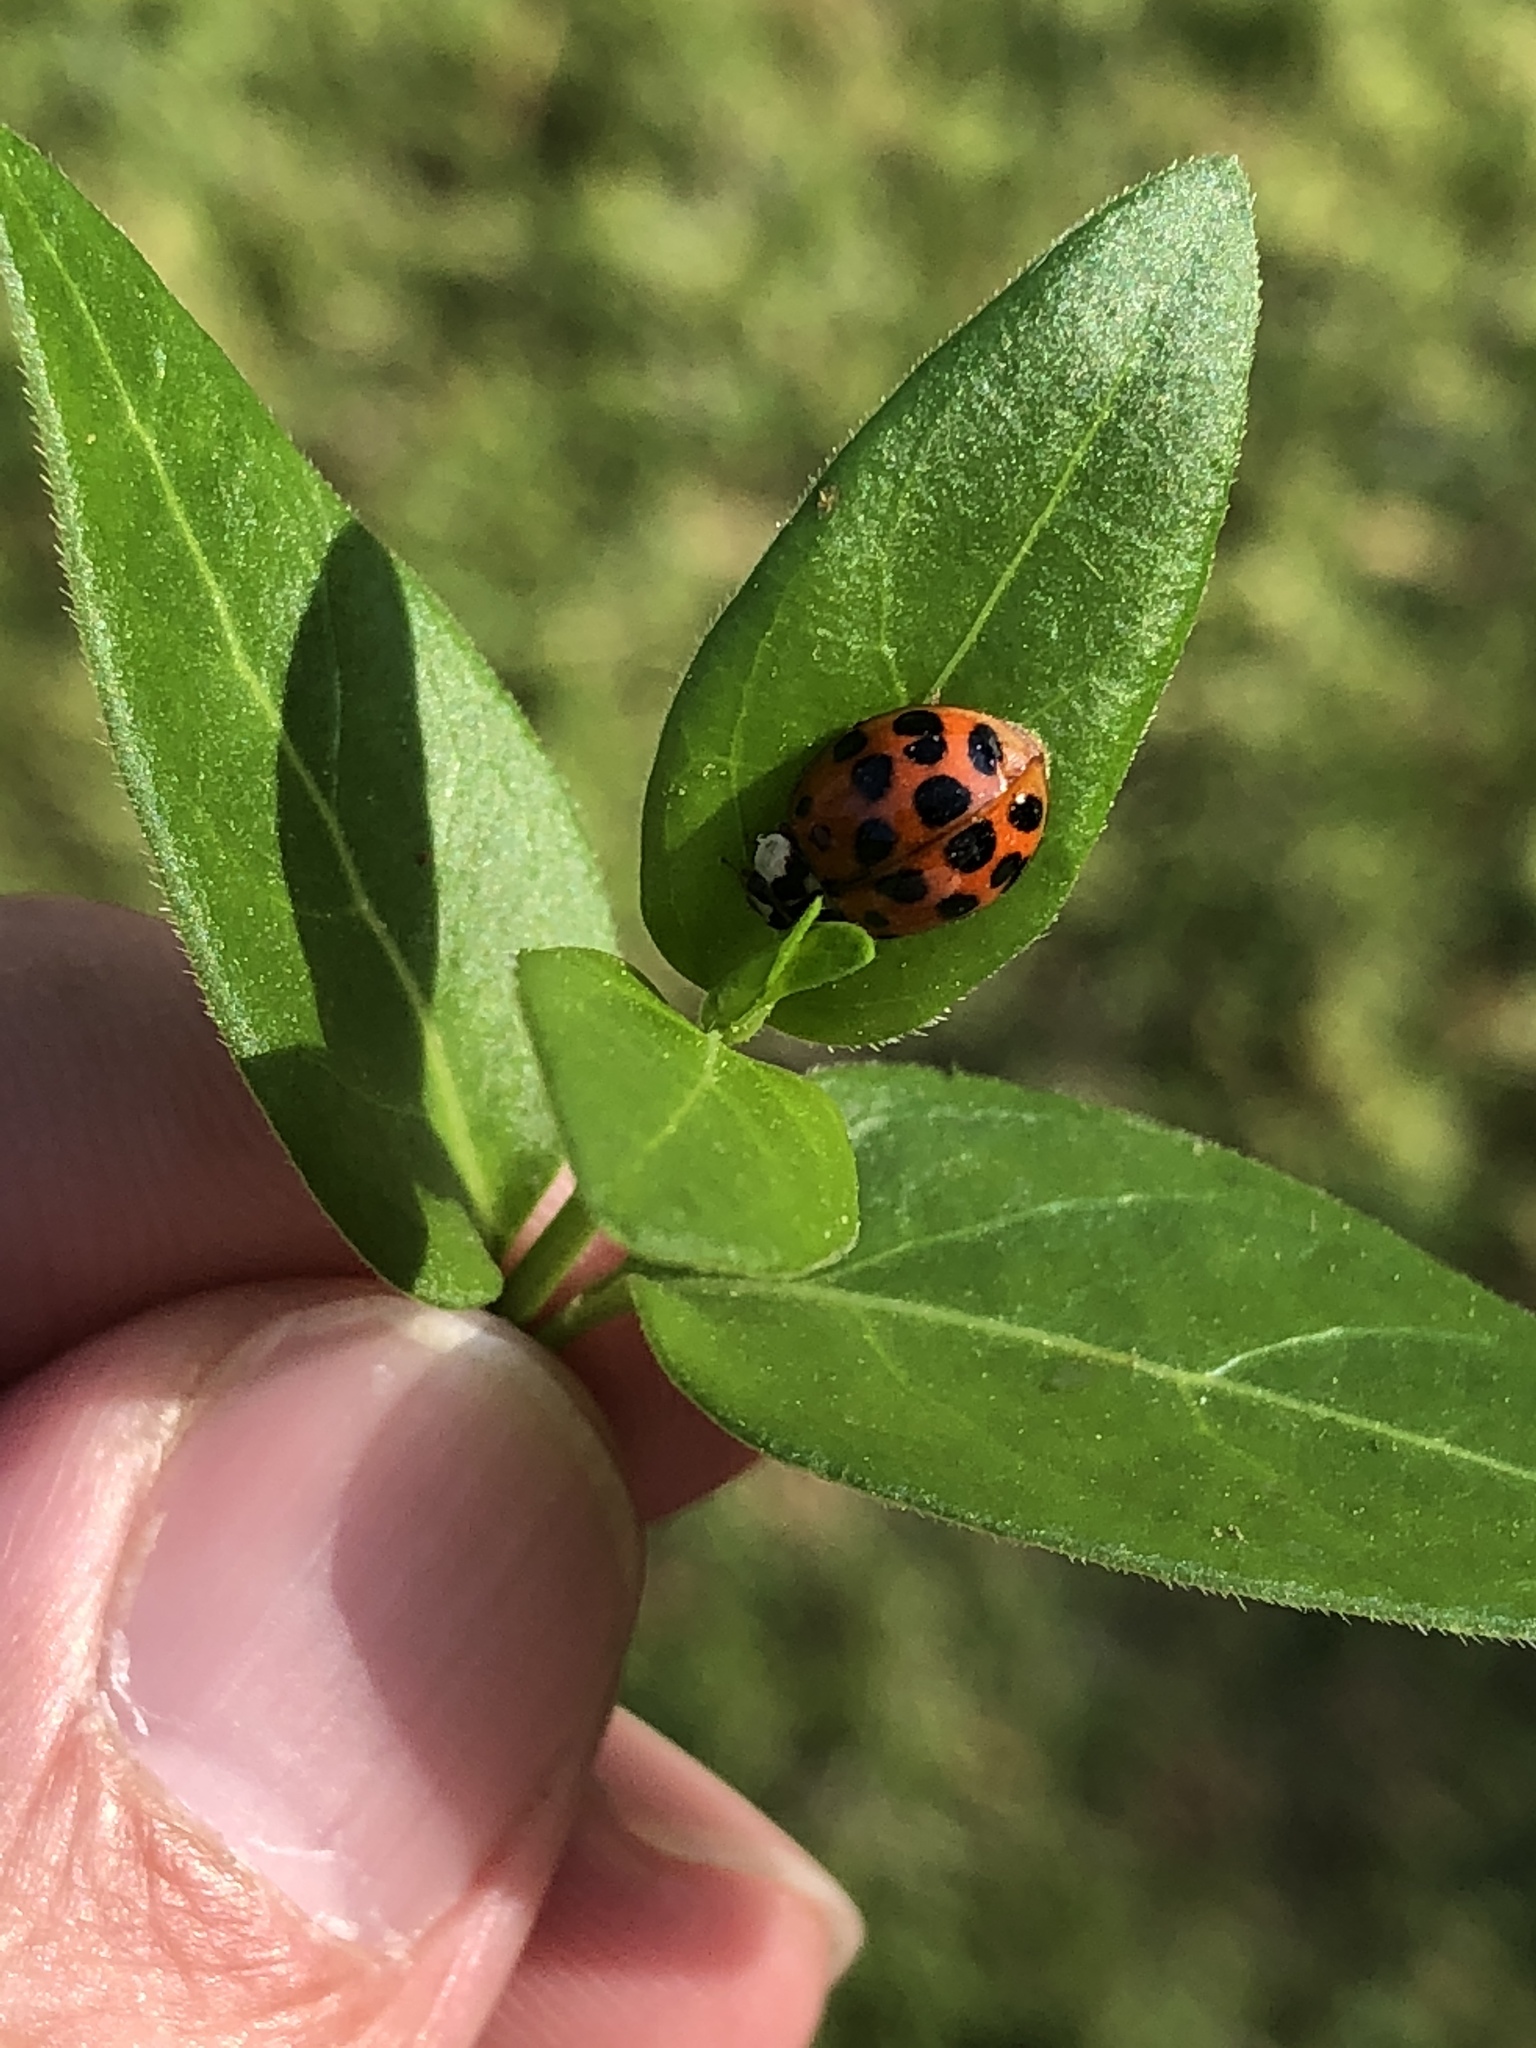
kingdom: Animalia
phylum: Arthropoda
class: Insecta
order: Coleoptera
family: Coccinellidae
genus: Harmonia
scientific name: Harmonia axyridis
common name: Harlequin ladybird
